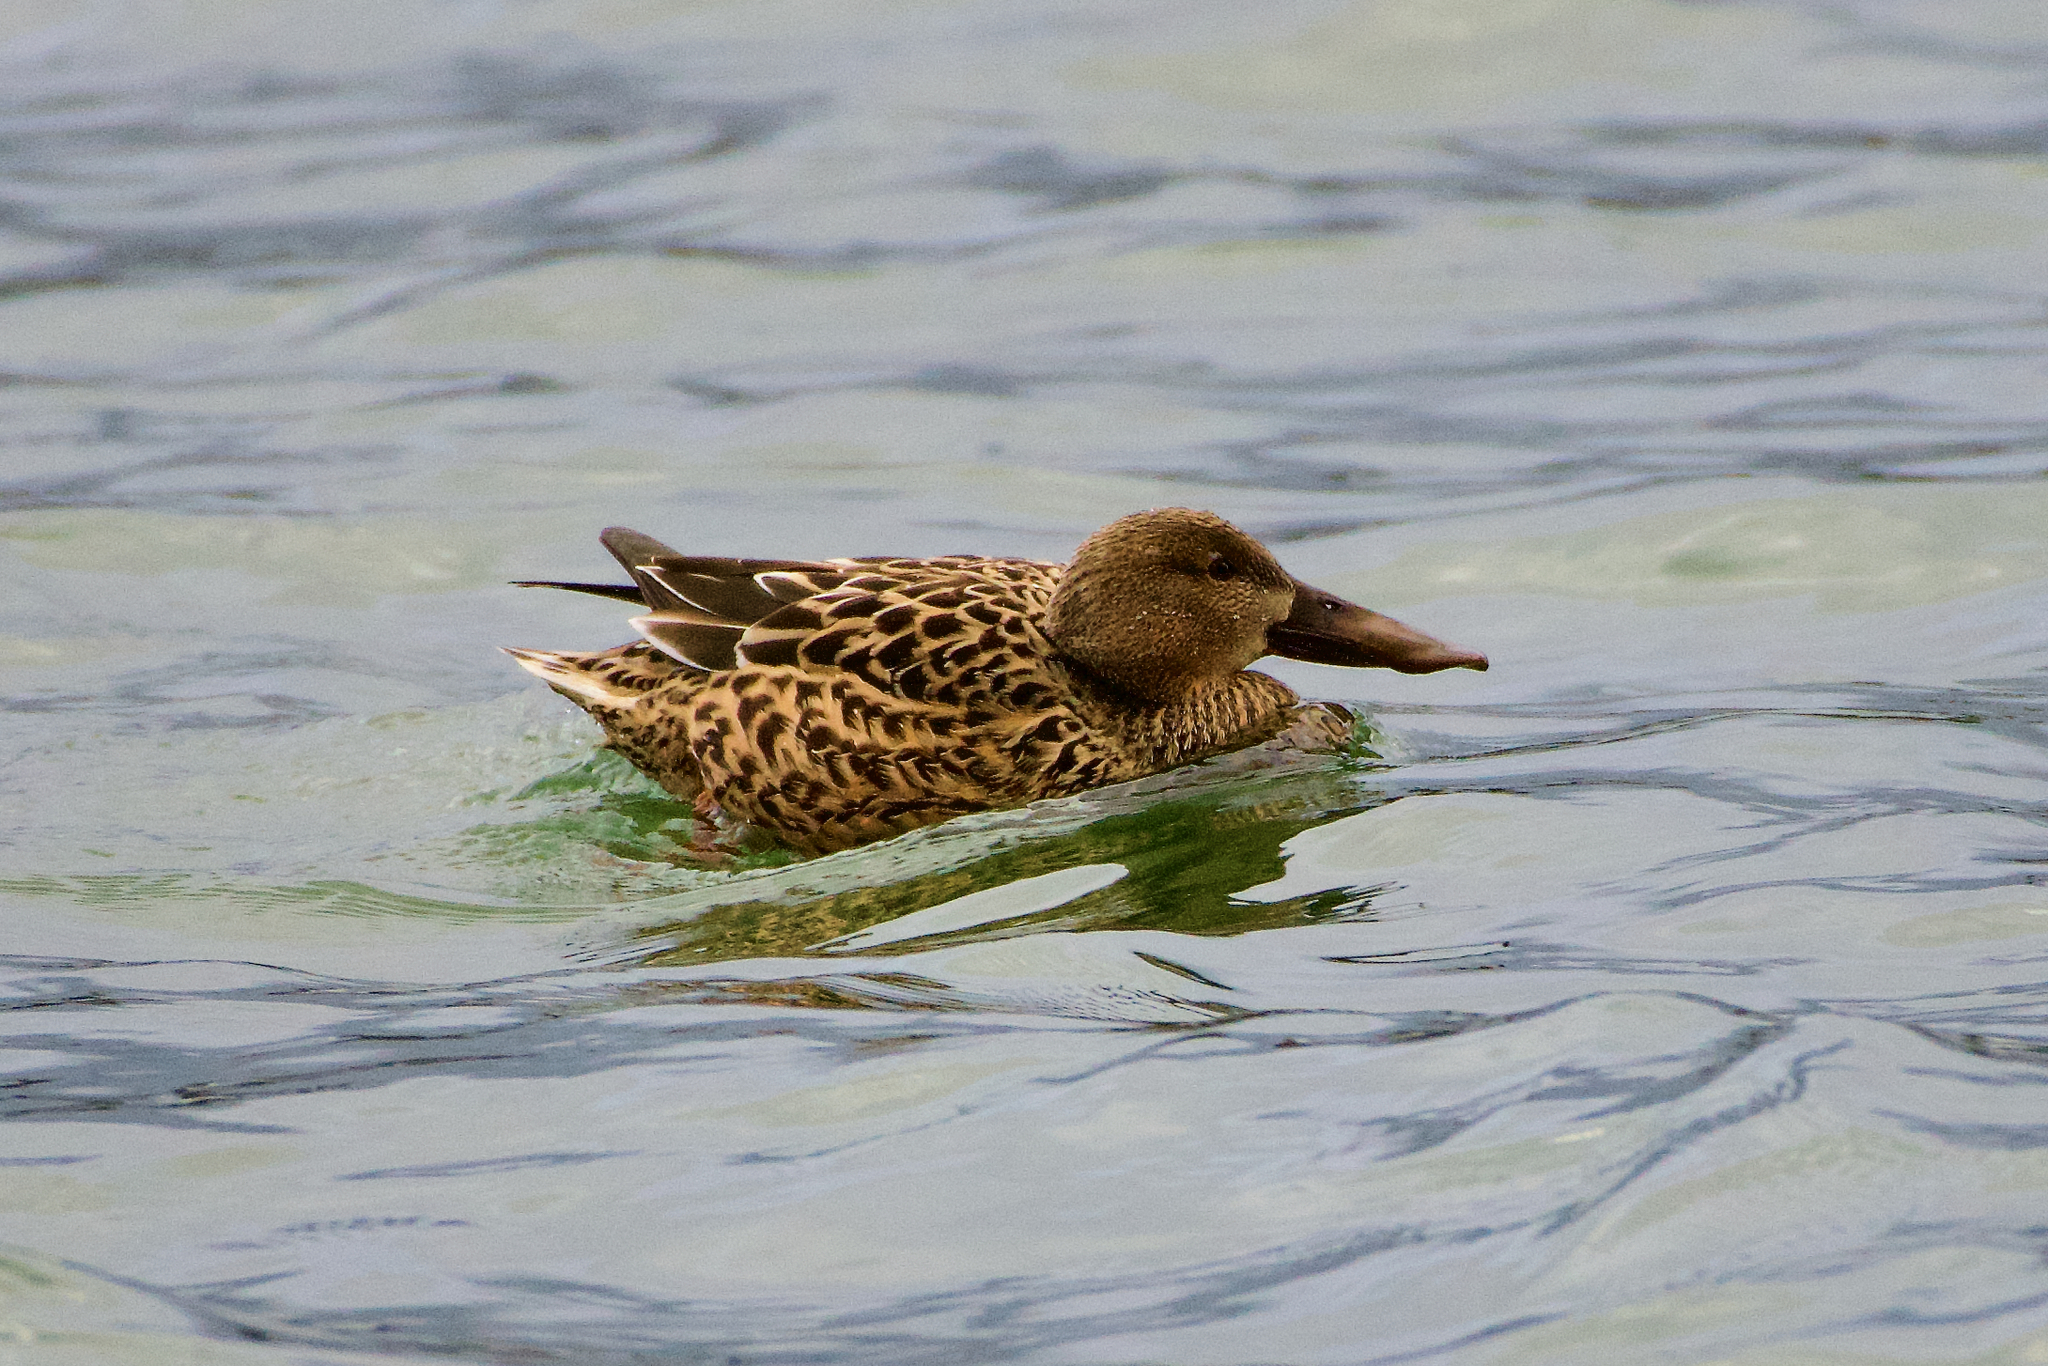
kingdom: Animalia
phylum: Chordata
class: Aves
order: Anseriformes
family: Anatidae
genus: Spatula
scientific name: Spatula clypeata
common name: Northern shoveler
